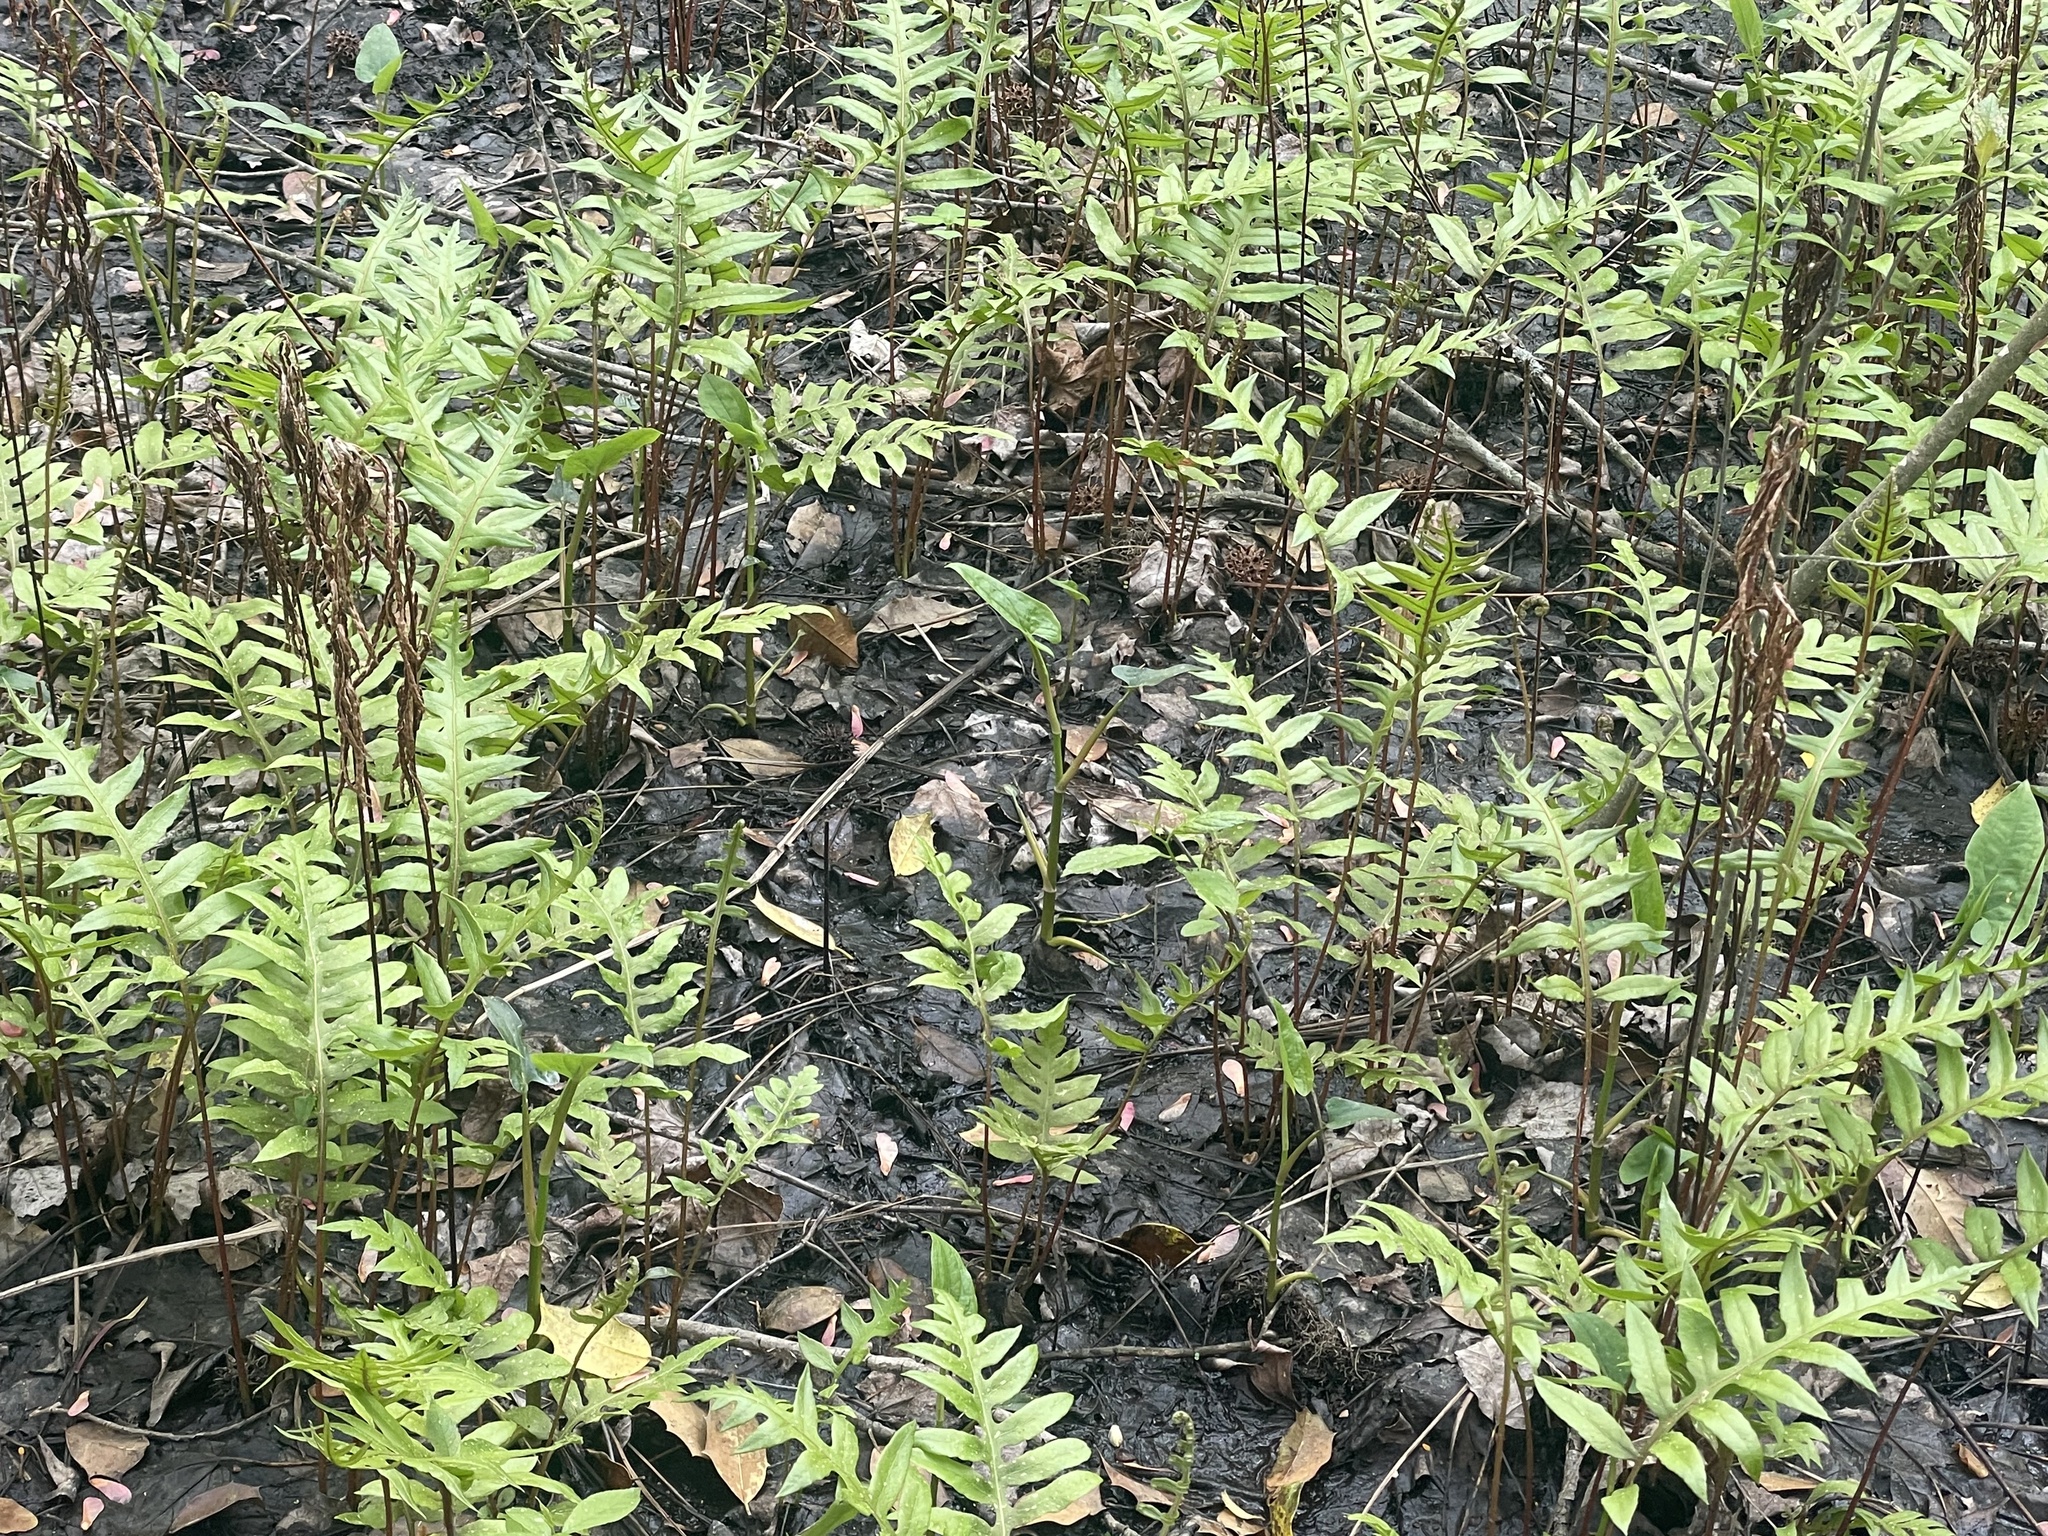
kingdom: Plantae
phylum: Tracheophyta
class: Polypodiopsida
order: Polypodiales
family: Blechnaceae
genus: Lorinseria
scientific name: Lorinseria areolata
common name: Dwarf chain fern
